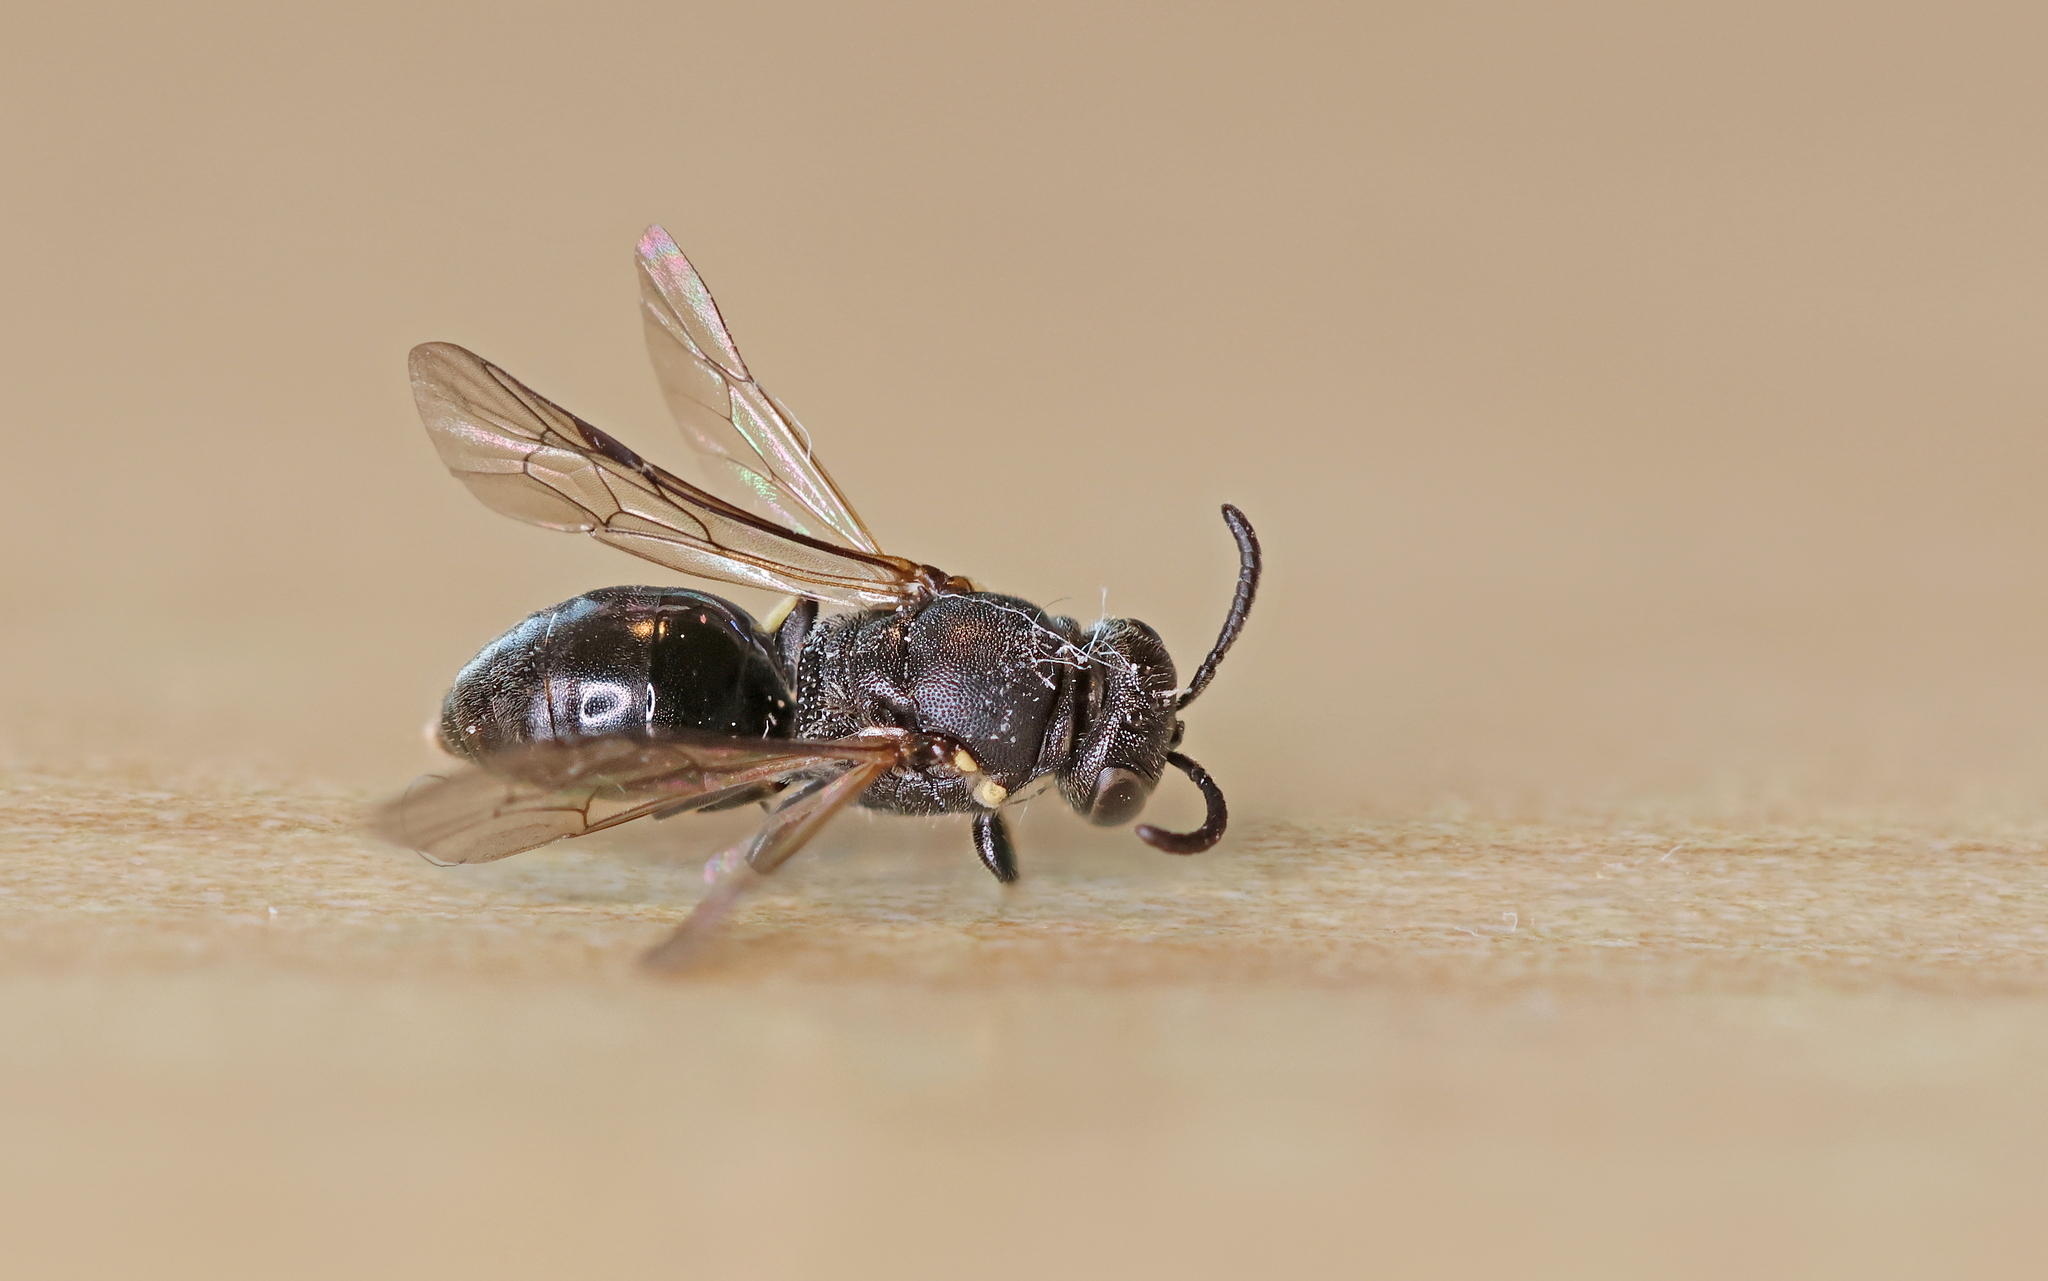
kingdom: Animalia
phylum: Arthropoda
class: Insecta
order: Hymenoptera
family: Colletidae
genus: Hylaeus
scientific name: Hylaeus communis
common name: Common yellow-face bee
